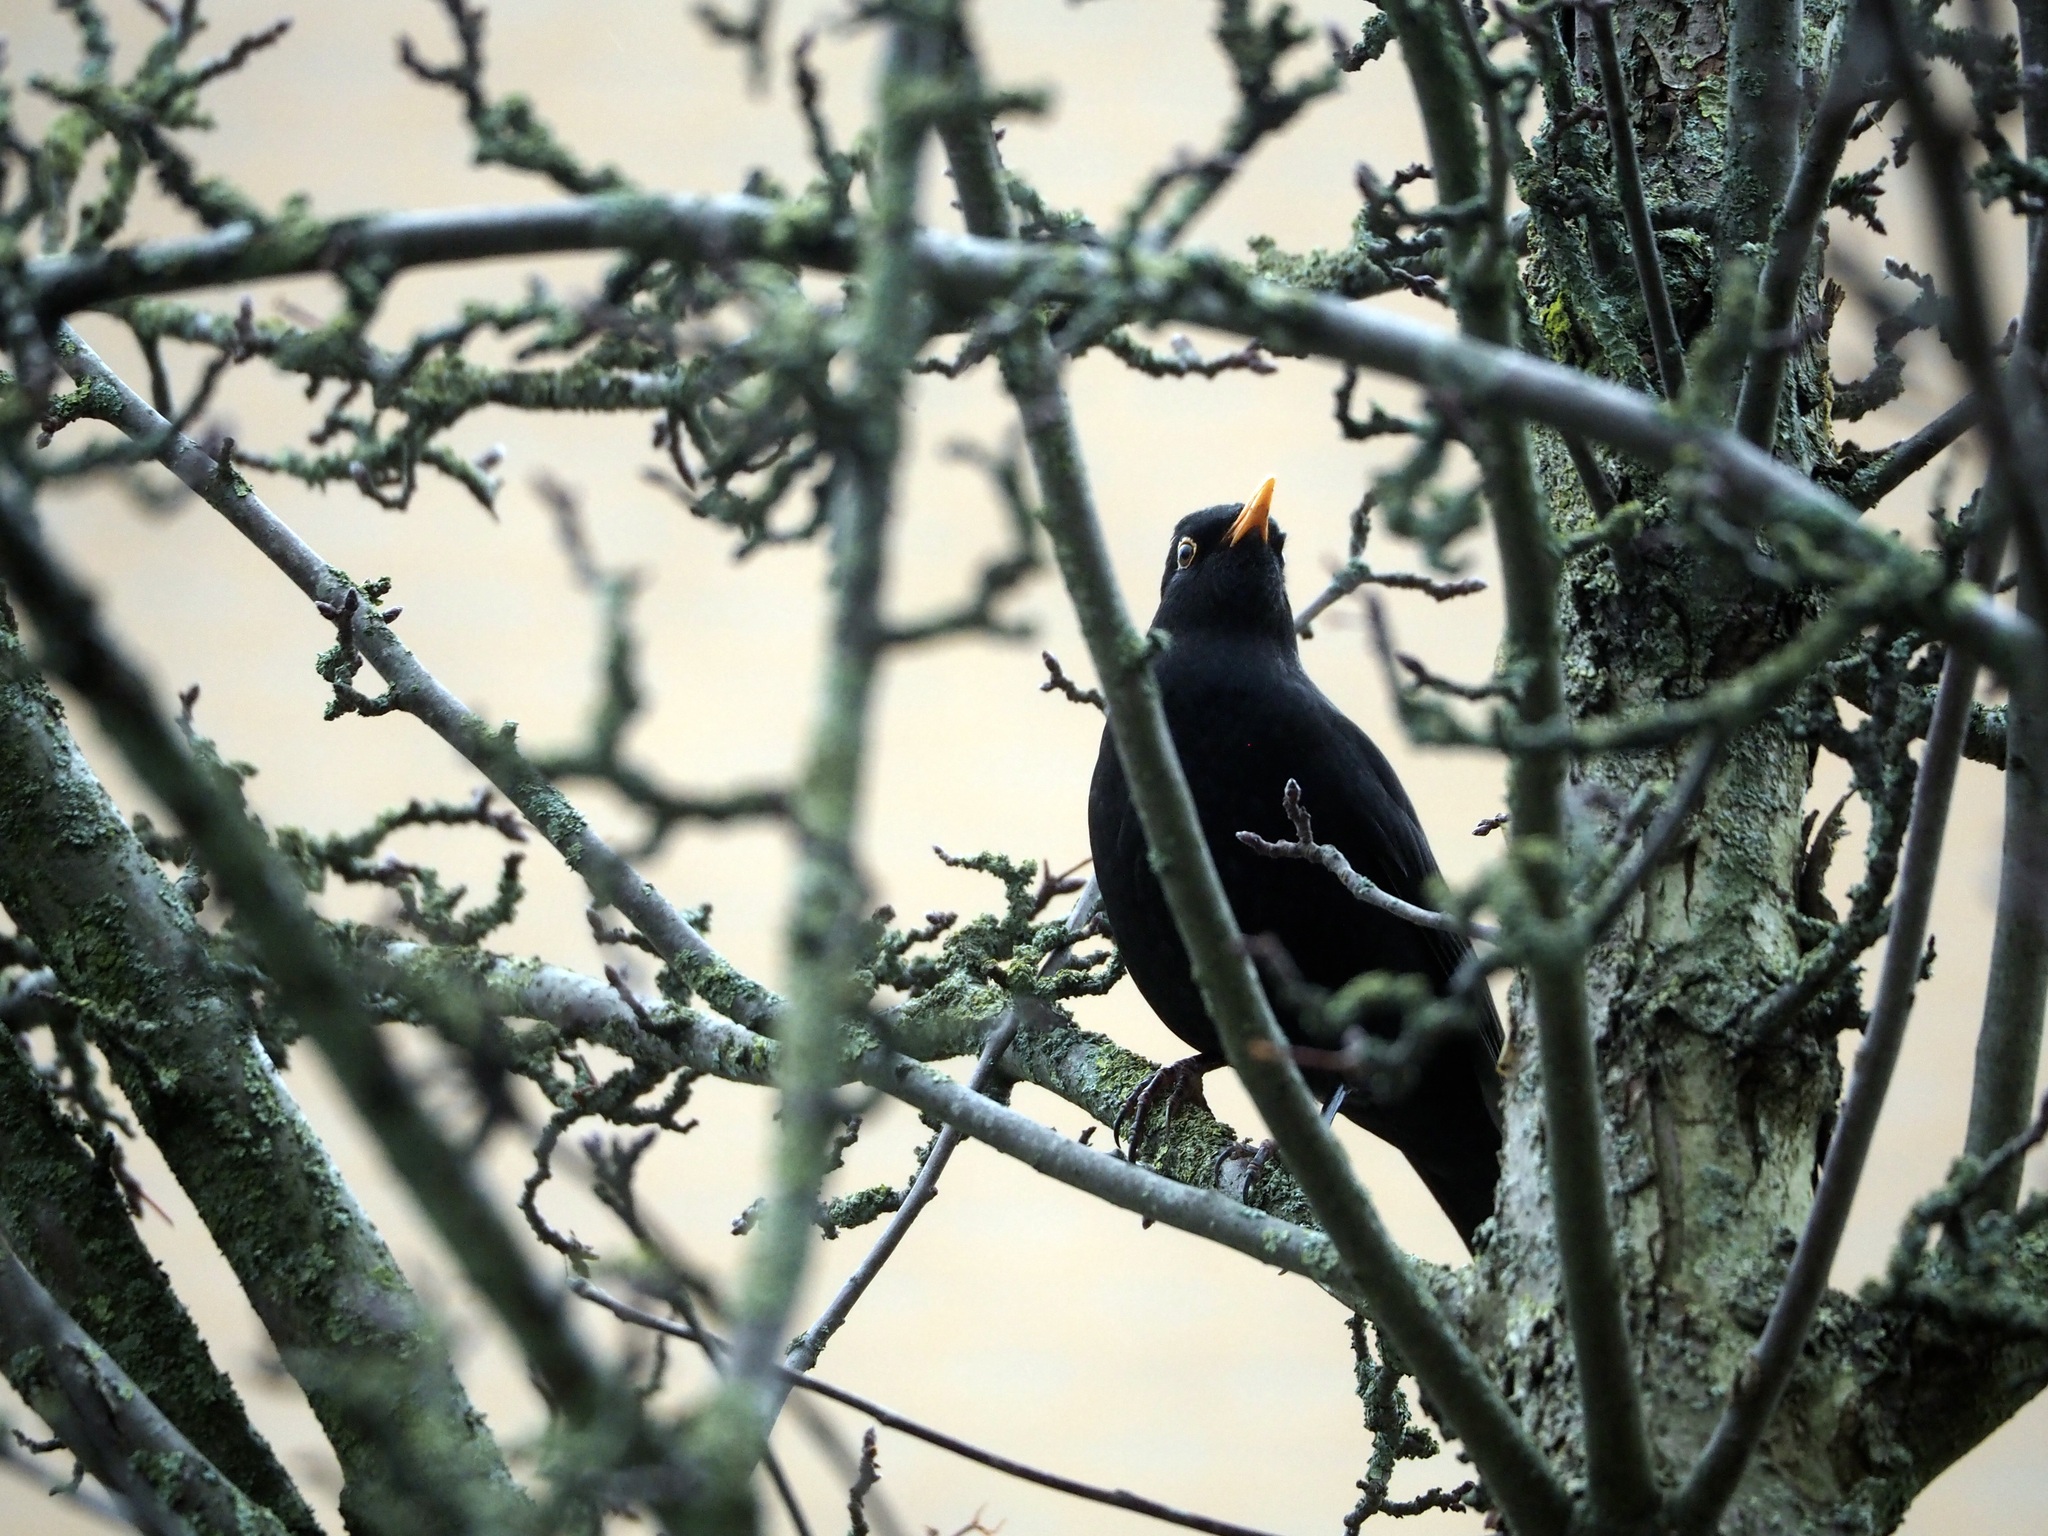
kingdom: Animalia
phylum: Chordata
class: Aves
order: Passeriformes
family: Turdidae
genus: Turdus
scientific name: Turdus merula
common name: Common blackbird
